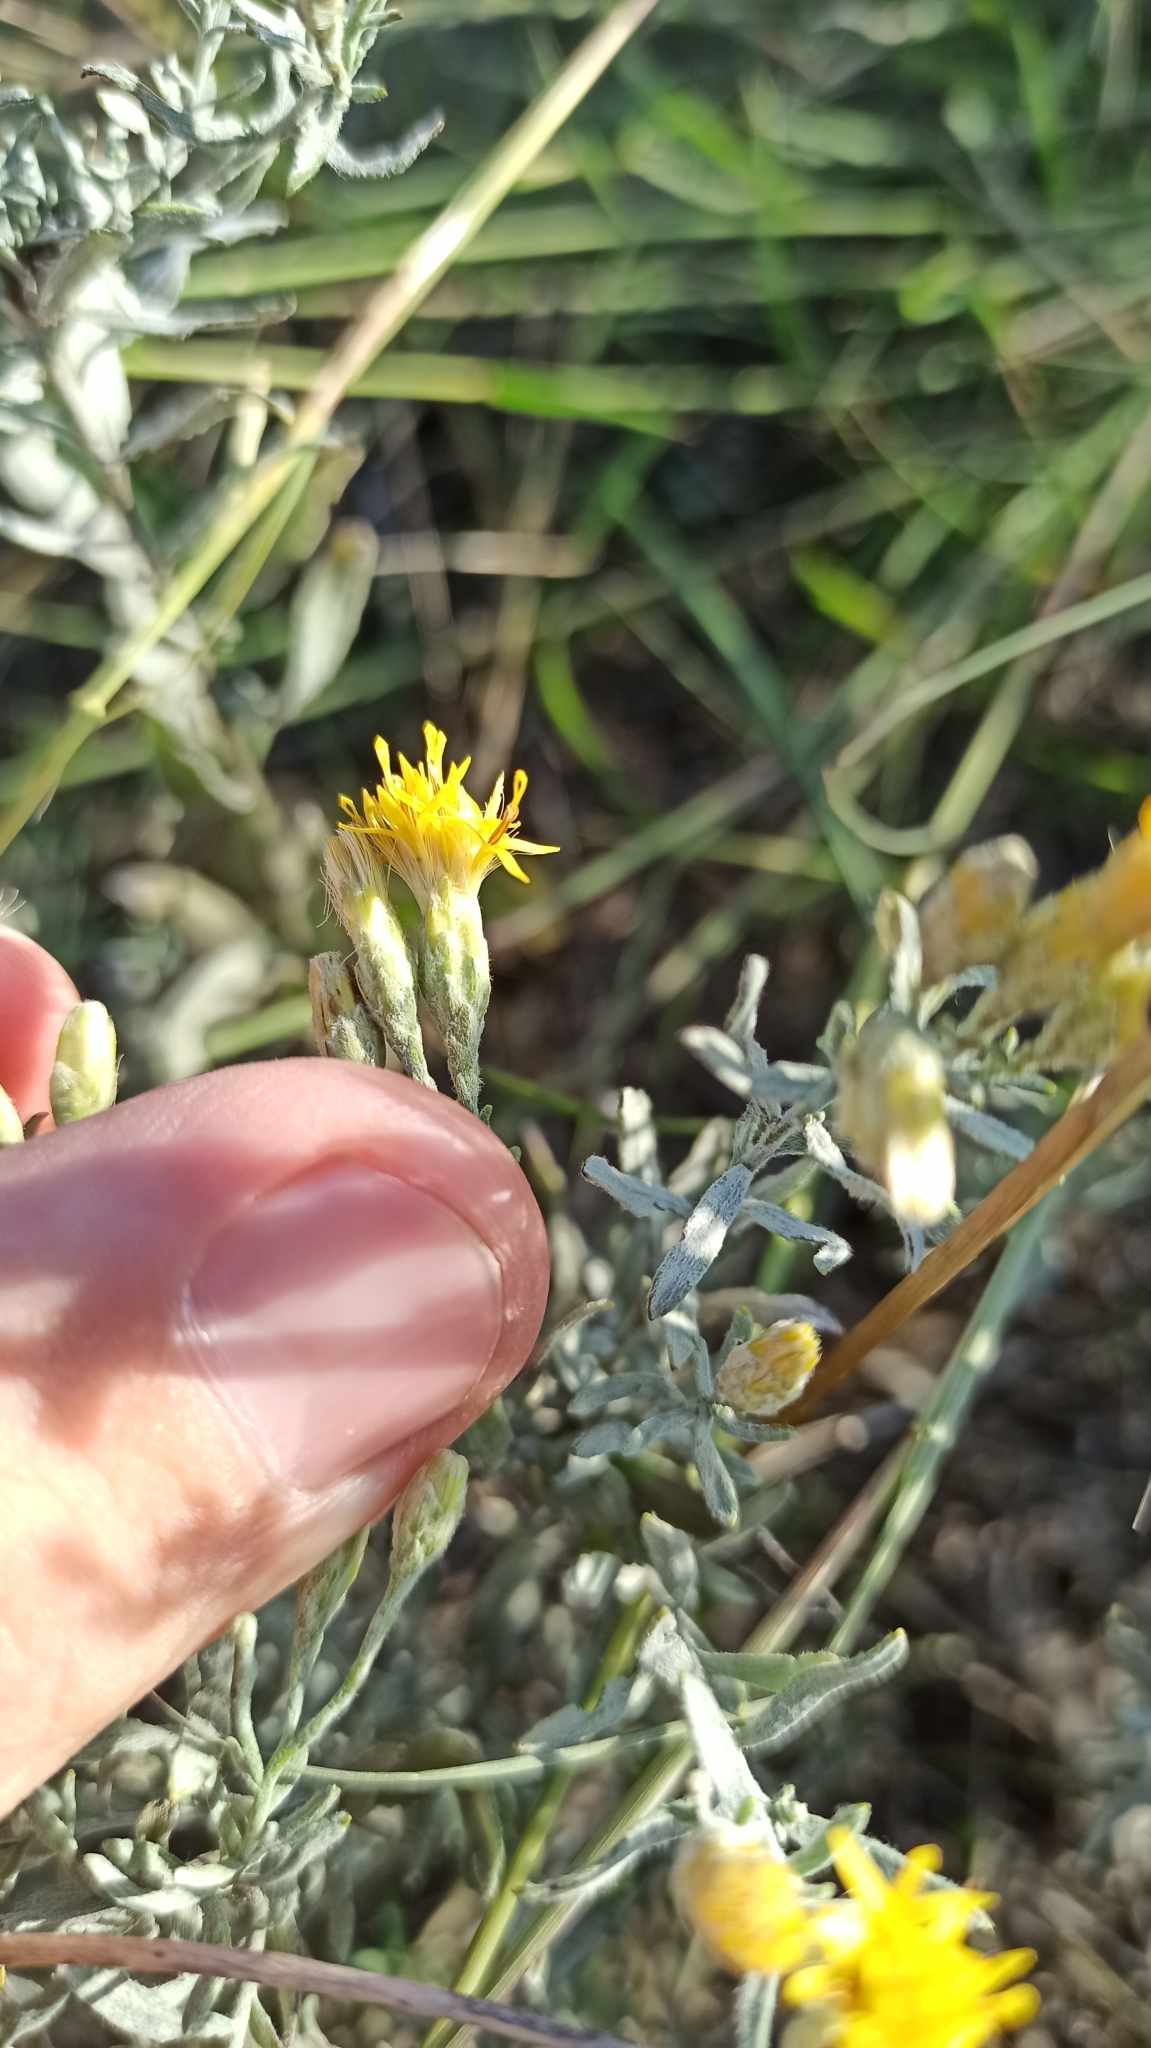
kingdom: Plantae
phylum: Tracheophyta
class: Magnoliopsida
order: Asterales
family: Asteraceae
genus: Galatella
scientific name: Galatella villosa
